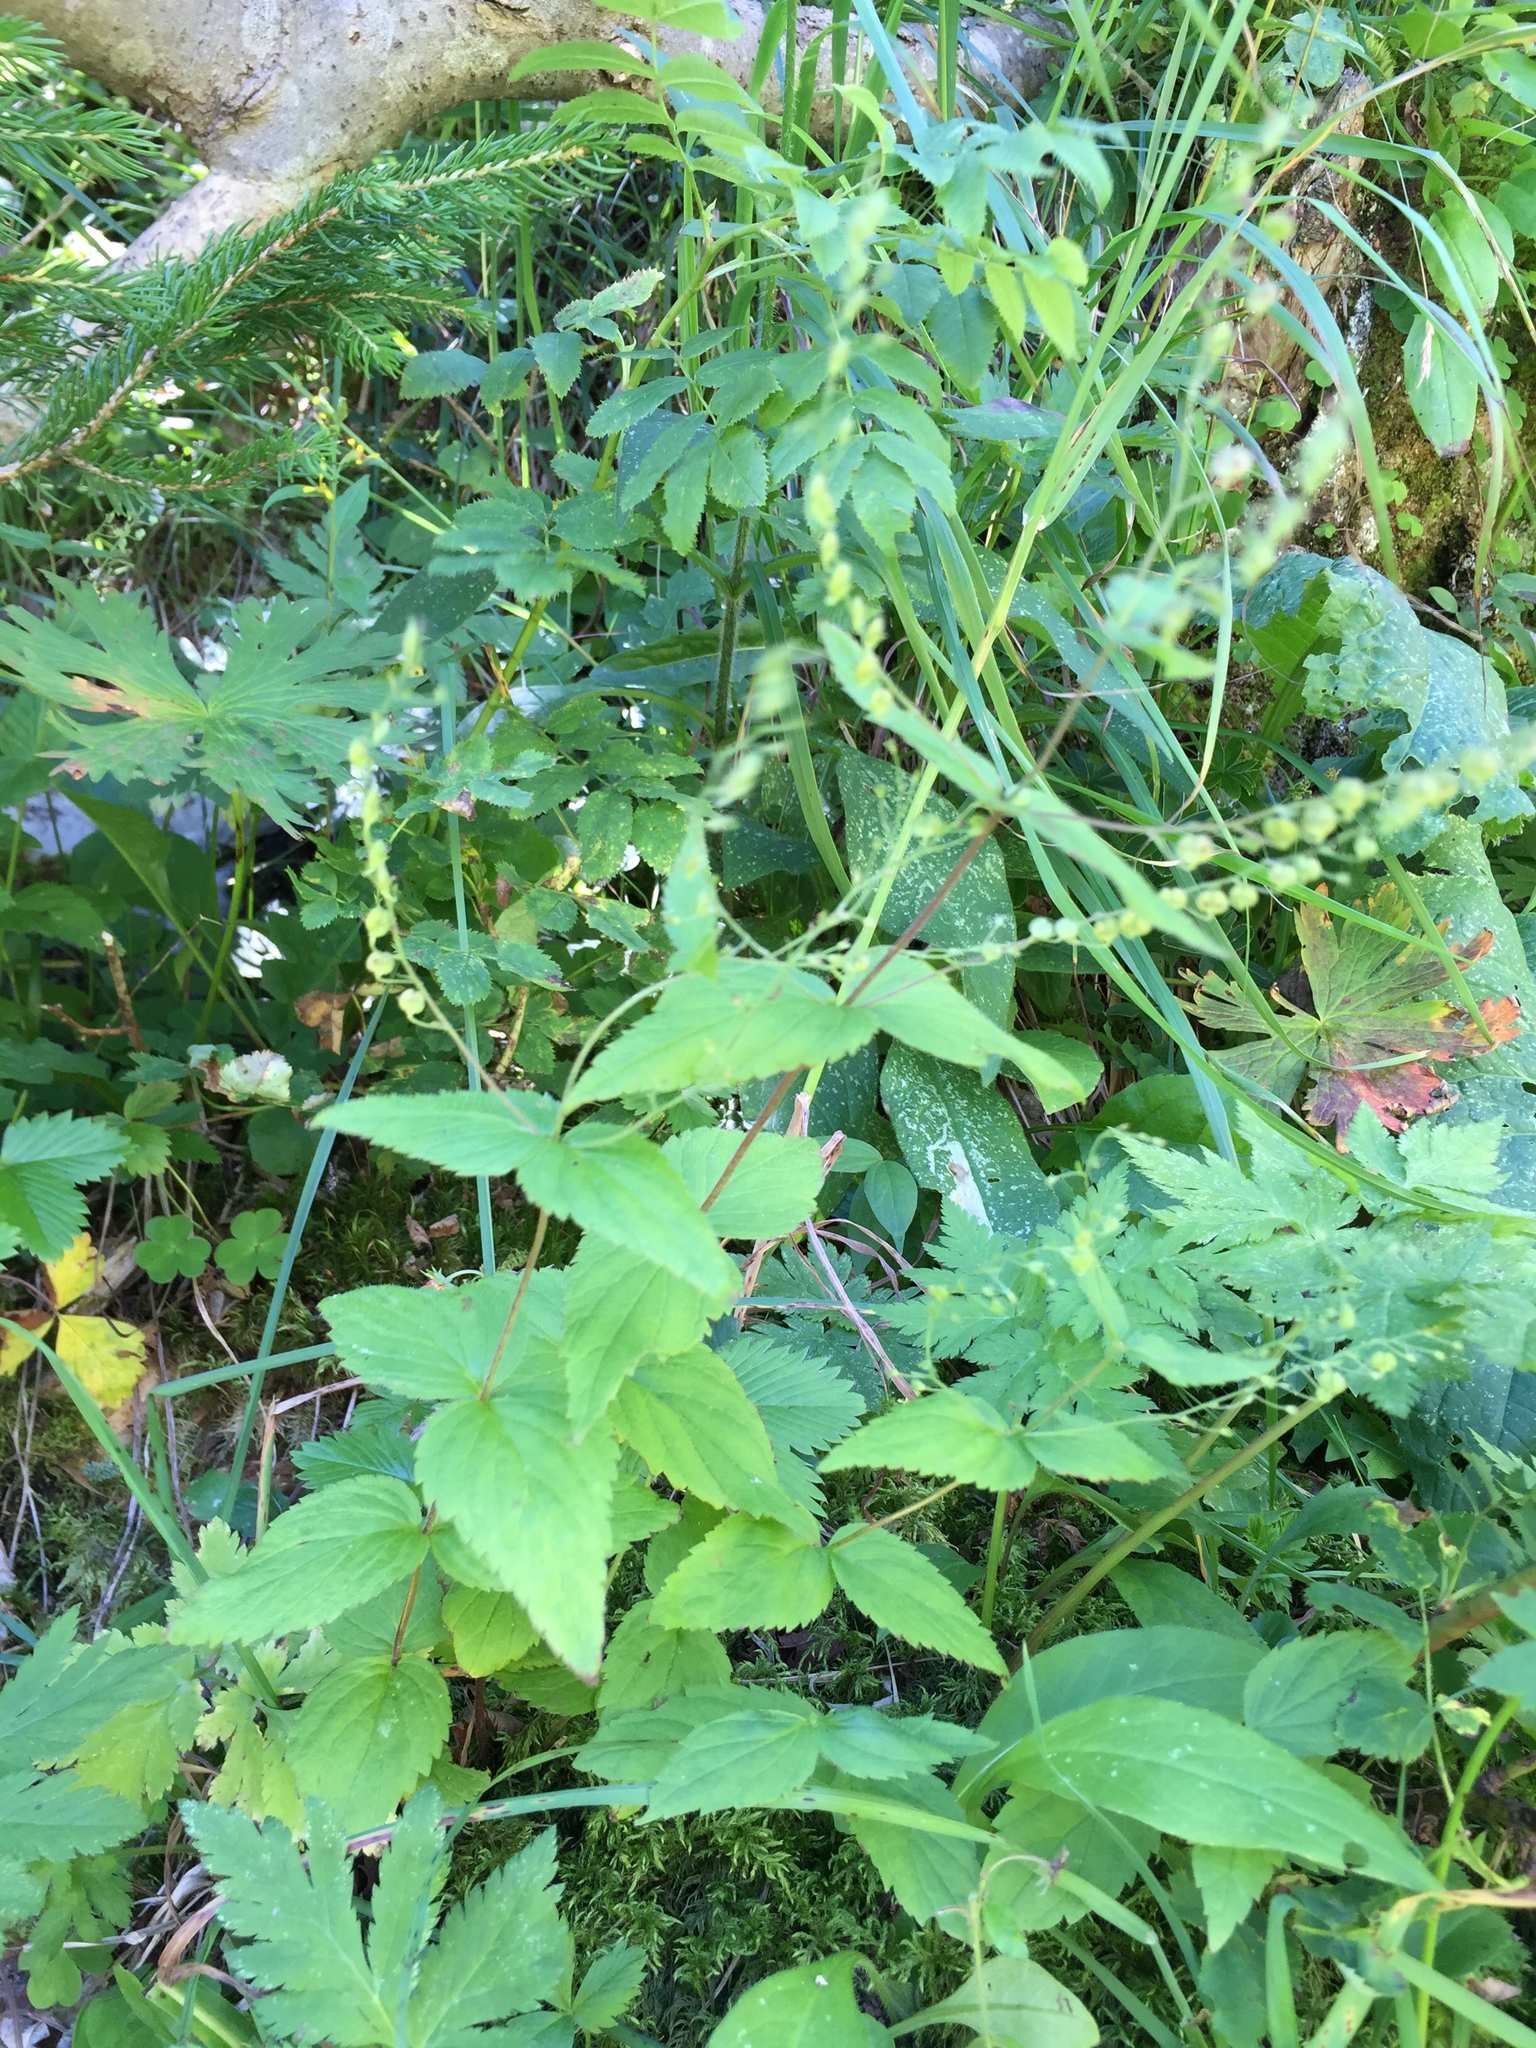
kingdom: Plantae
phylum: Tracheophyta
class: Magnoliopsida
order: Lamiales
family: Plantaginaceae
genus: Veronica
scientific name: Veronica urticifolia
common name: Nettle-leaf speedwell
